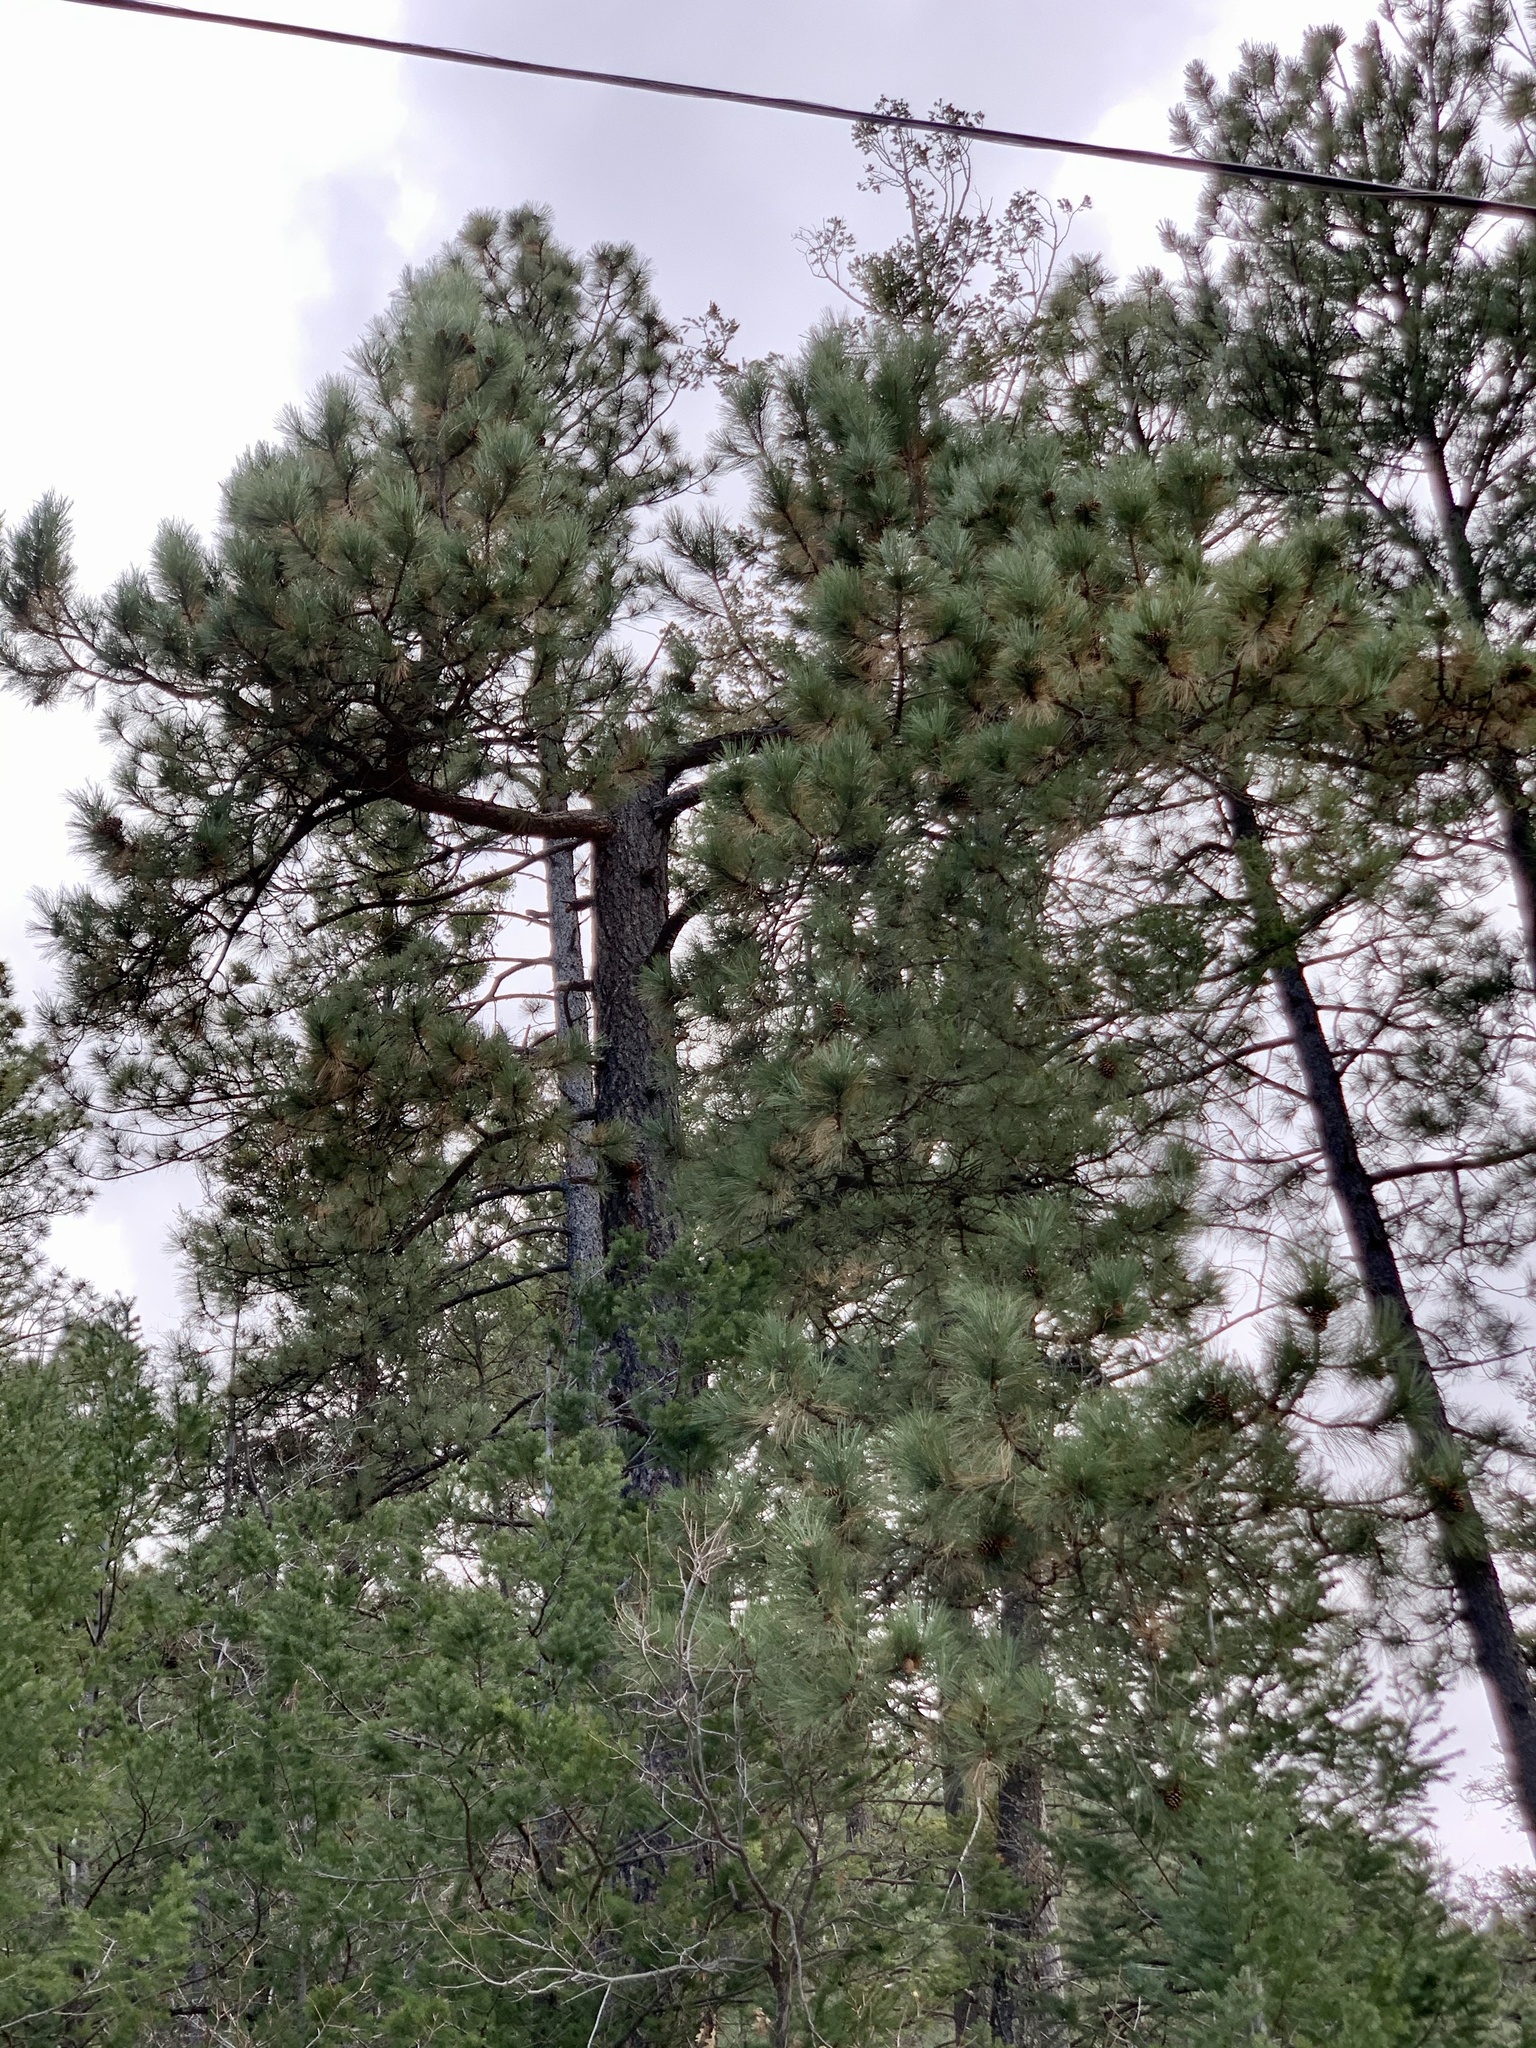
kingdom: Plantae
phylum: Tracheophyta
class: Pinopsida
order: Pinales
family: Pinaceae
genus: Pinus
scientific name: Pinus ponderosa
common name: Western yellow-pine
